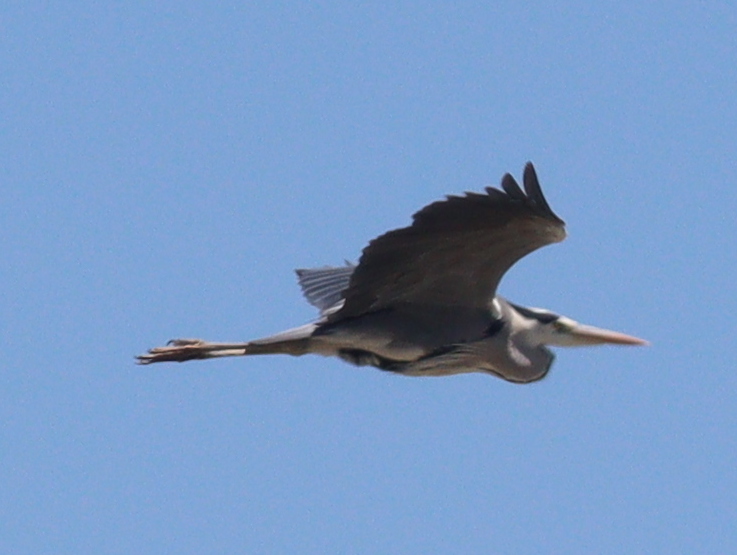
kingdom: Animalia
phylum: Chordata
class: Aves
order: Pelecaniformes
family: Ardeidae
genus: Ardea
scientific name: Ardea cinerea
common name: Grey heron
